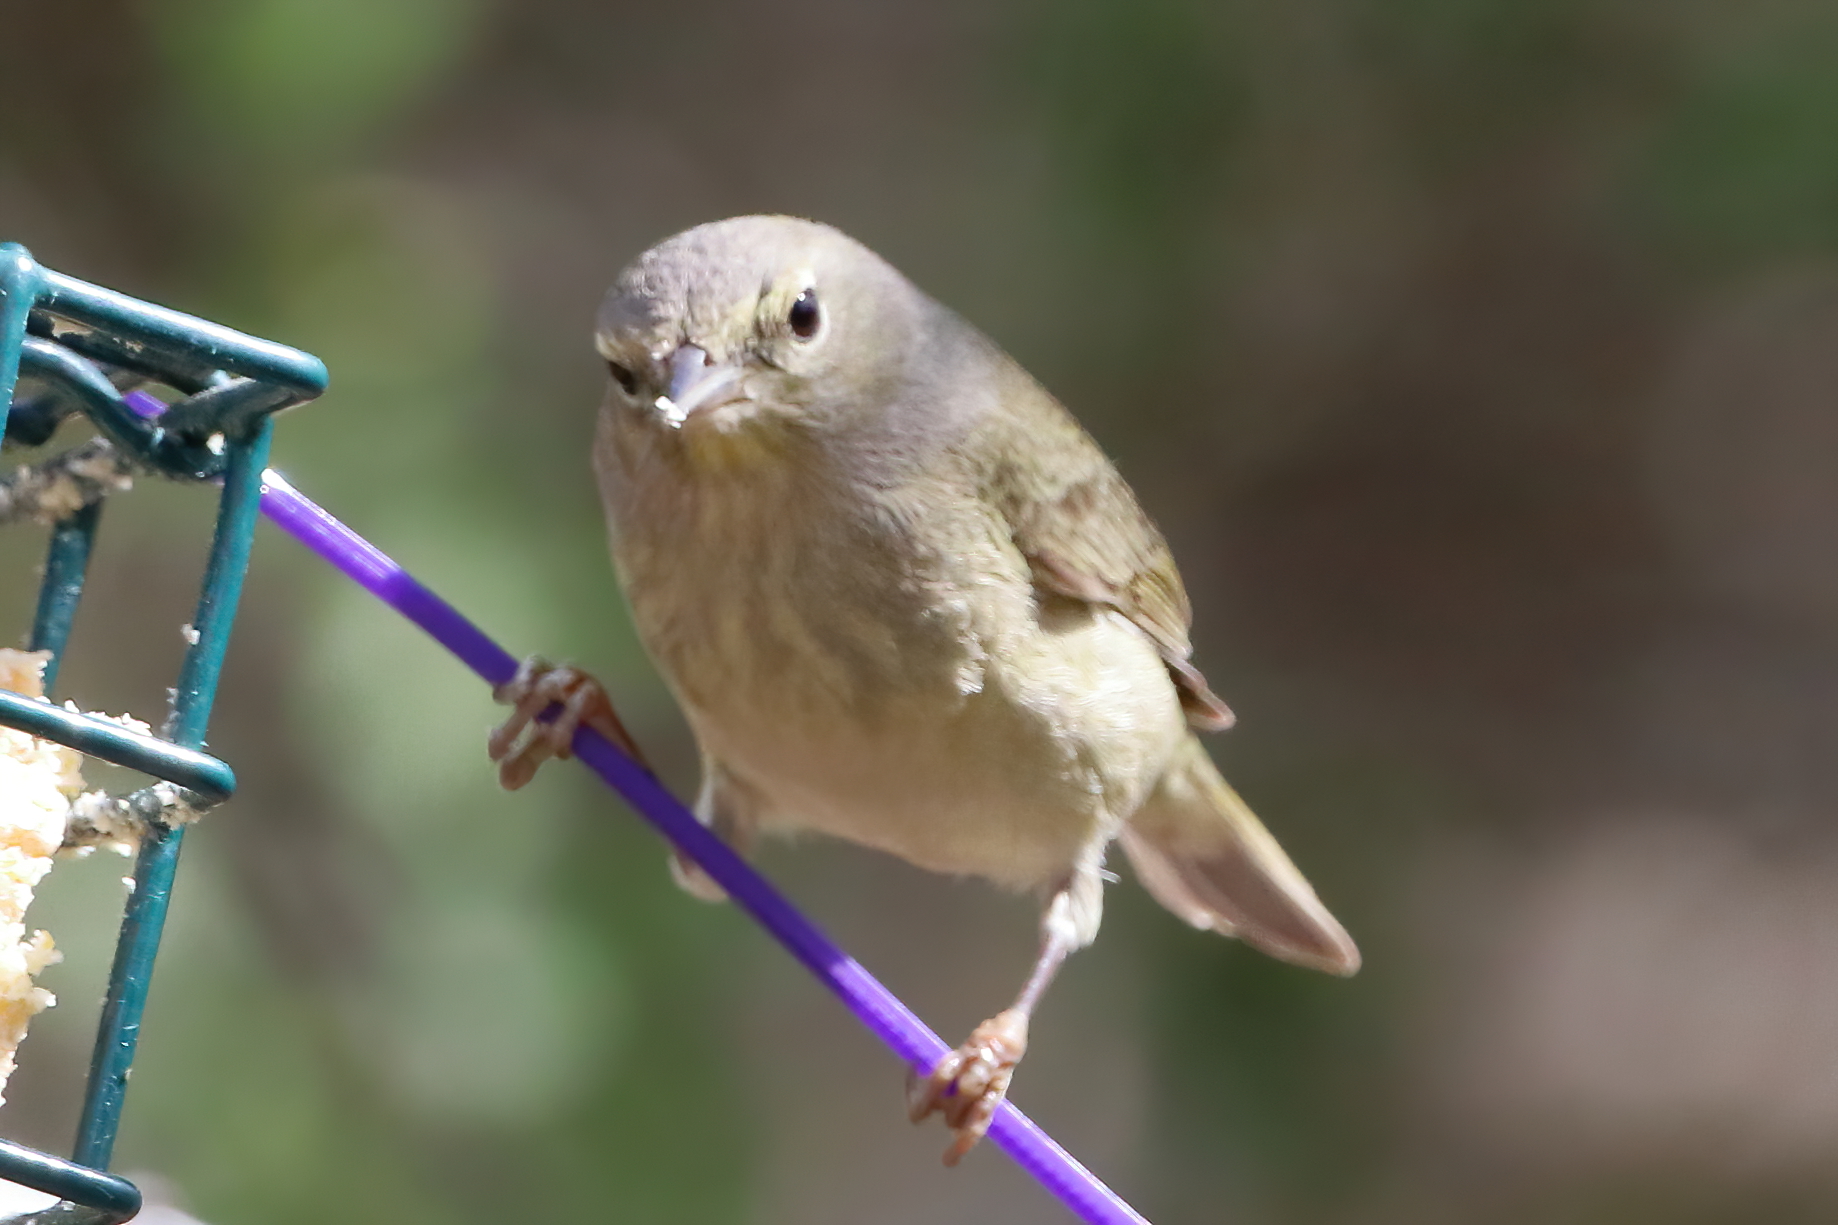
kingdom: Animalia
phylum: Chordata
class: Aves
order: Passeriformes
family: Parulidae
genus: Leiothlypis
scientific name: Leiothlypis celata
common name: Orange-crowned warbler
